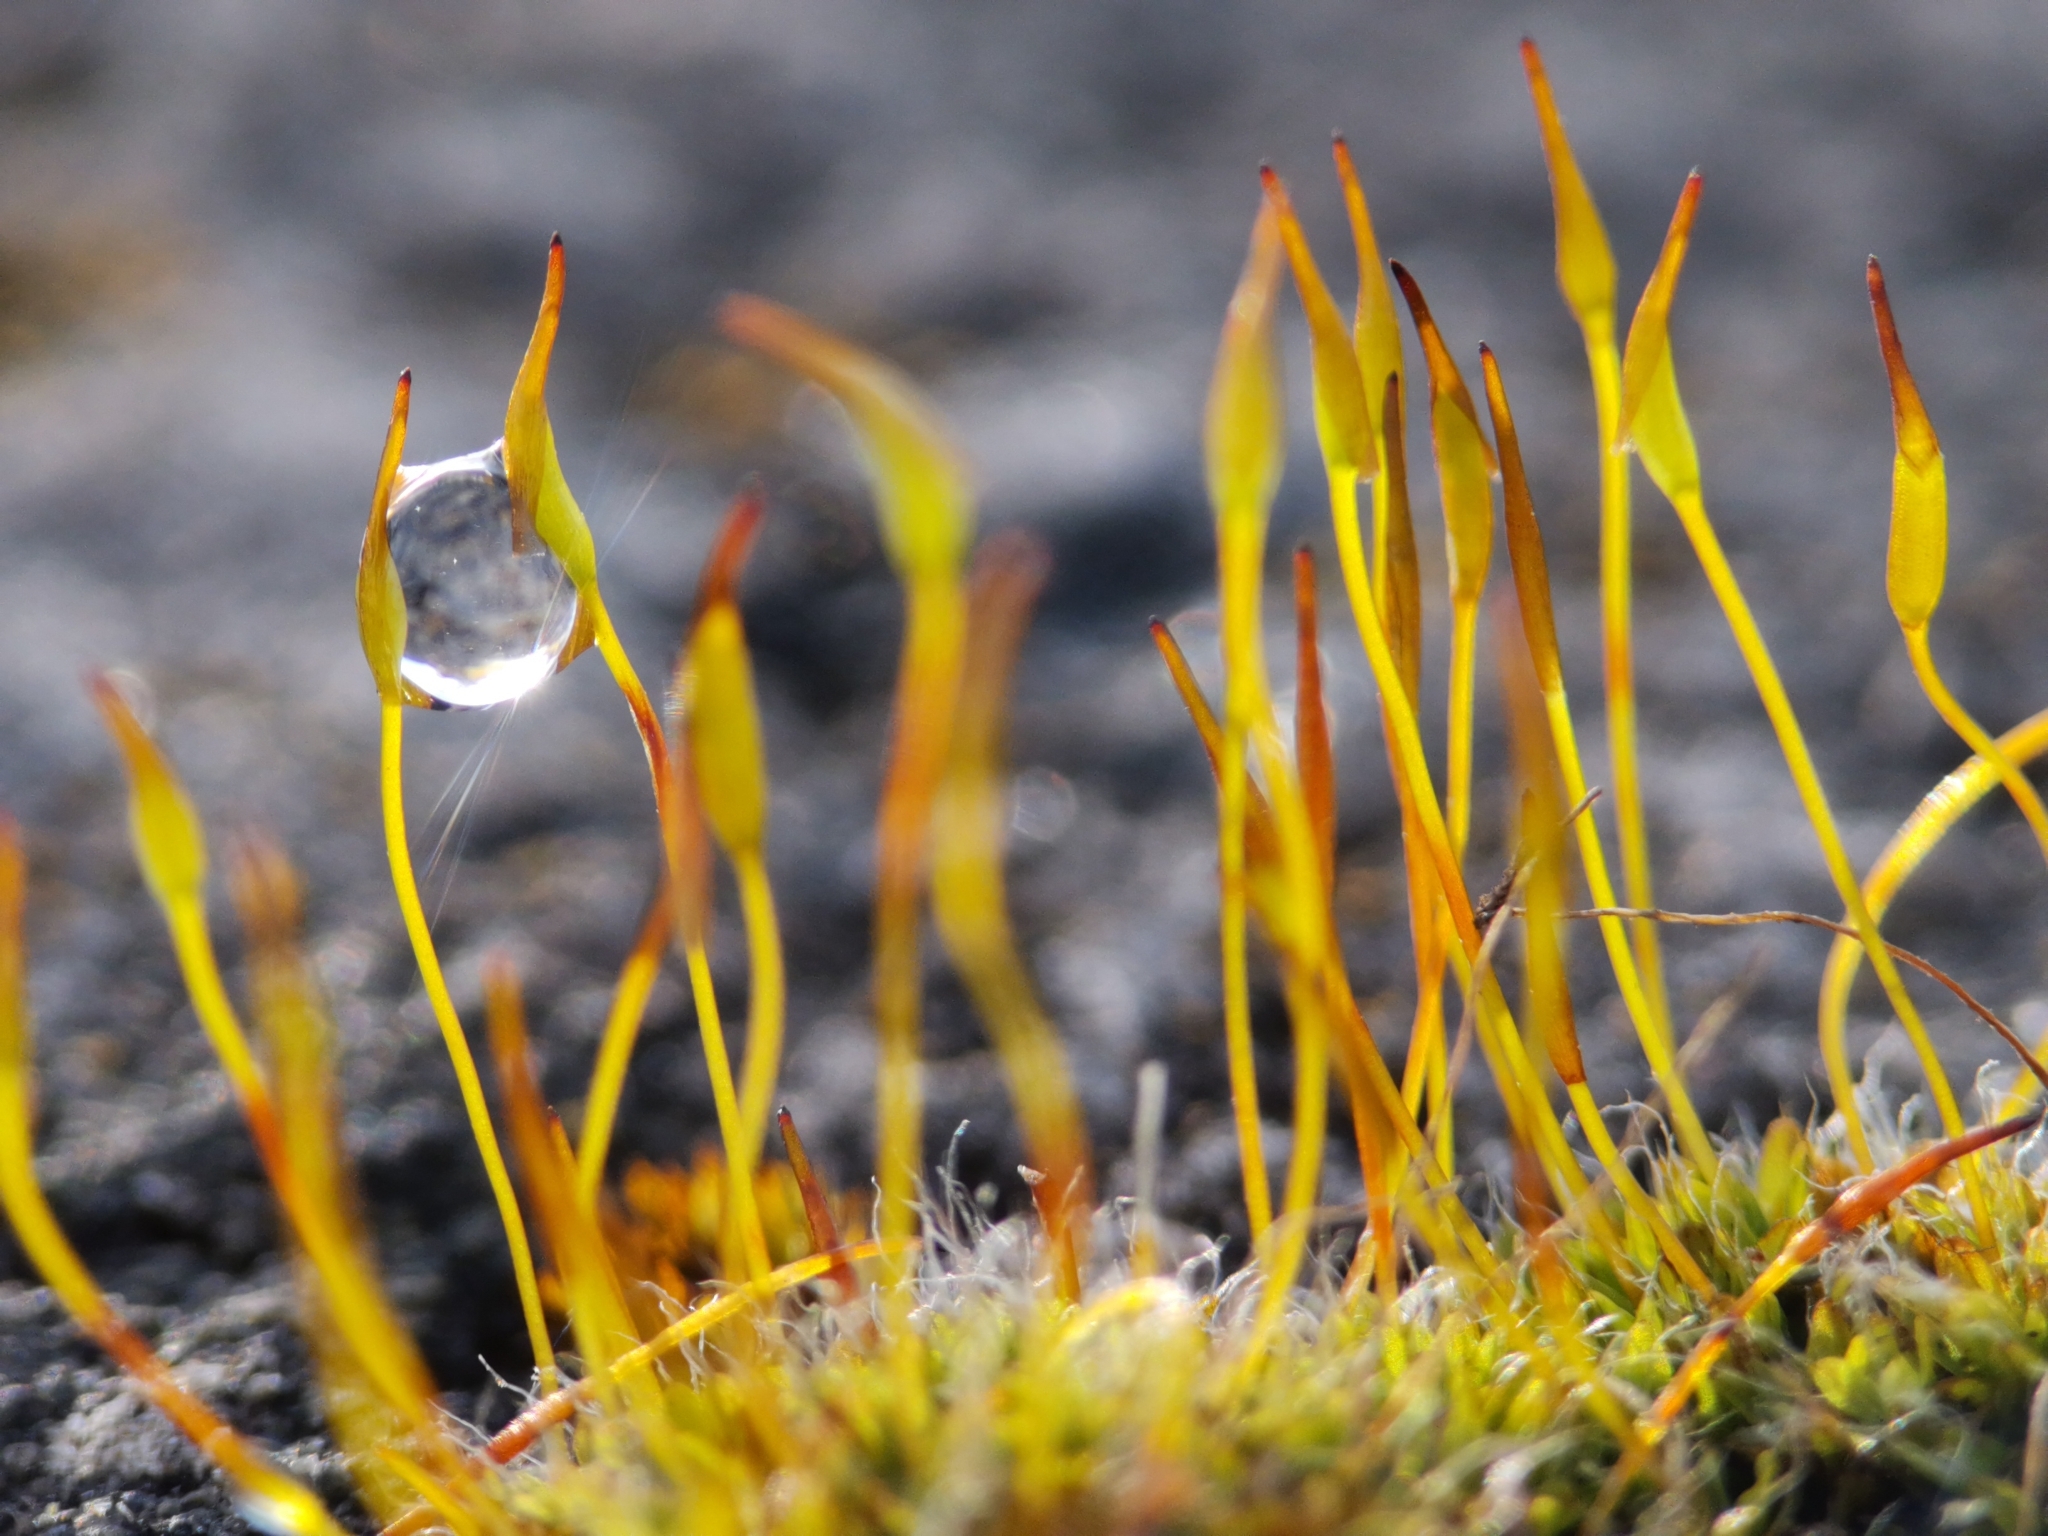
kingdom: Plantae
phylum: Bryophyta
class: Bryopsida
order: Pottiales
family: Pottiaceae
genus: Tortula
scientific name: Tortula muralis
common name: Wall screw-moss
